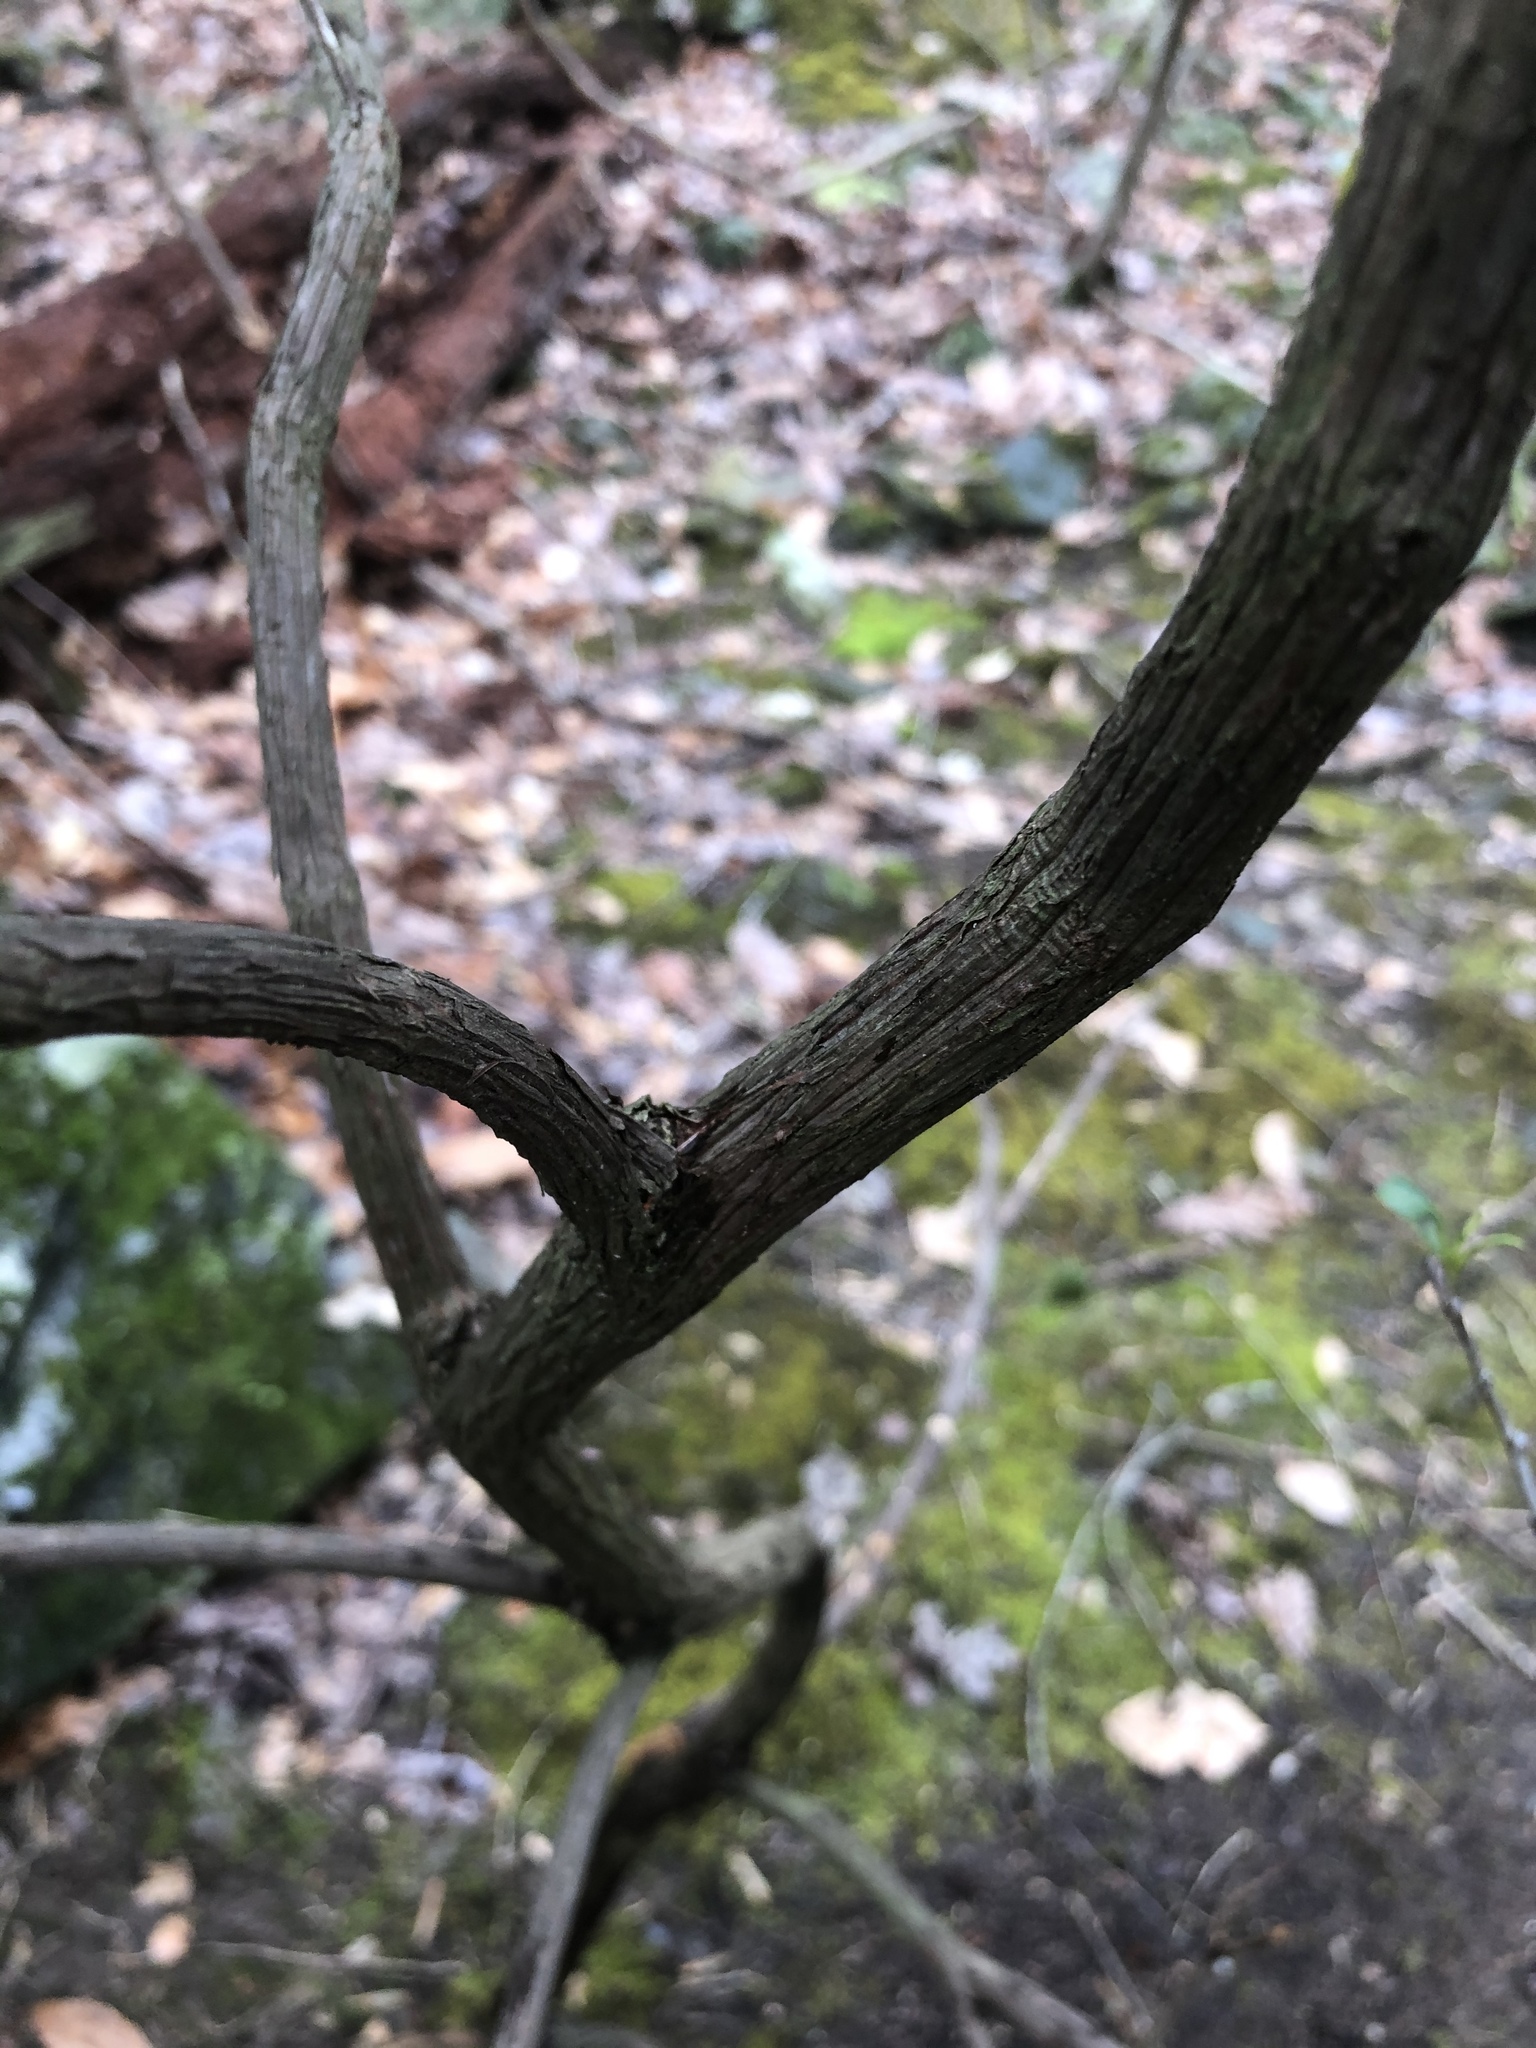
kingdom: Plantae
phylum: Tracheophyta
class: Magnoliopsida
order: Ericales
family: Ericaceae
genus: Kalmia
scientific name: Kalmia latifolia
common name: Mountain-laurel
